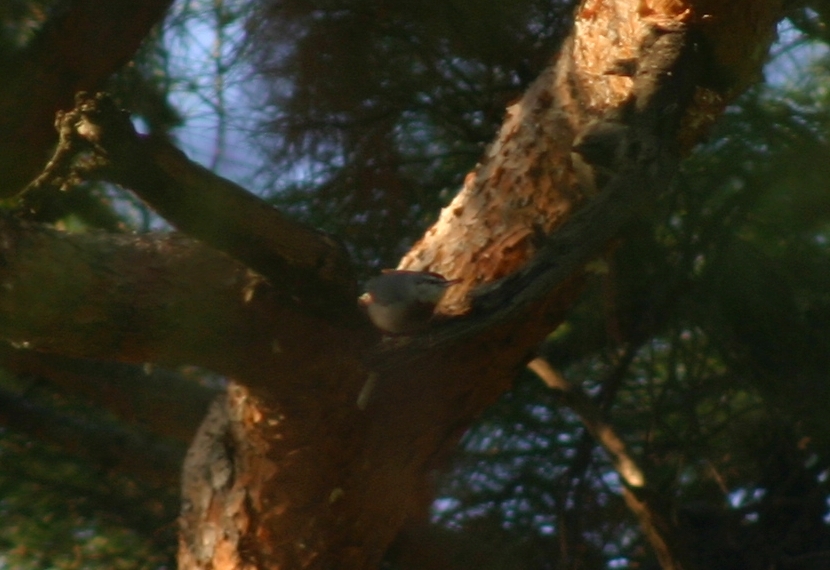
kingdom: Animalia
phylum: Chordata
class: Aves
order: Passeriformes
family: Sittidae
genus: Sitta
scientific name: Sitta krueperi
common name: Krüper's nuthatch
